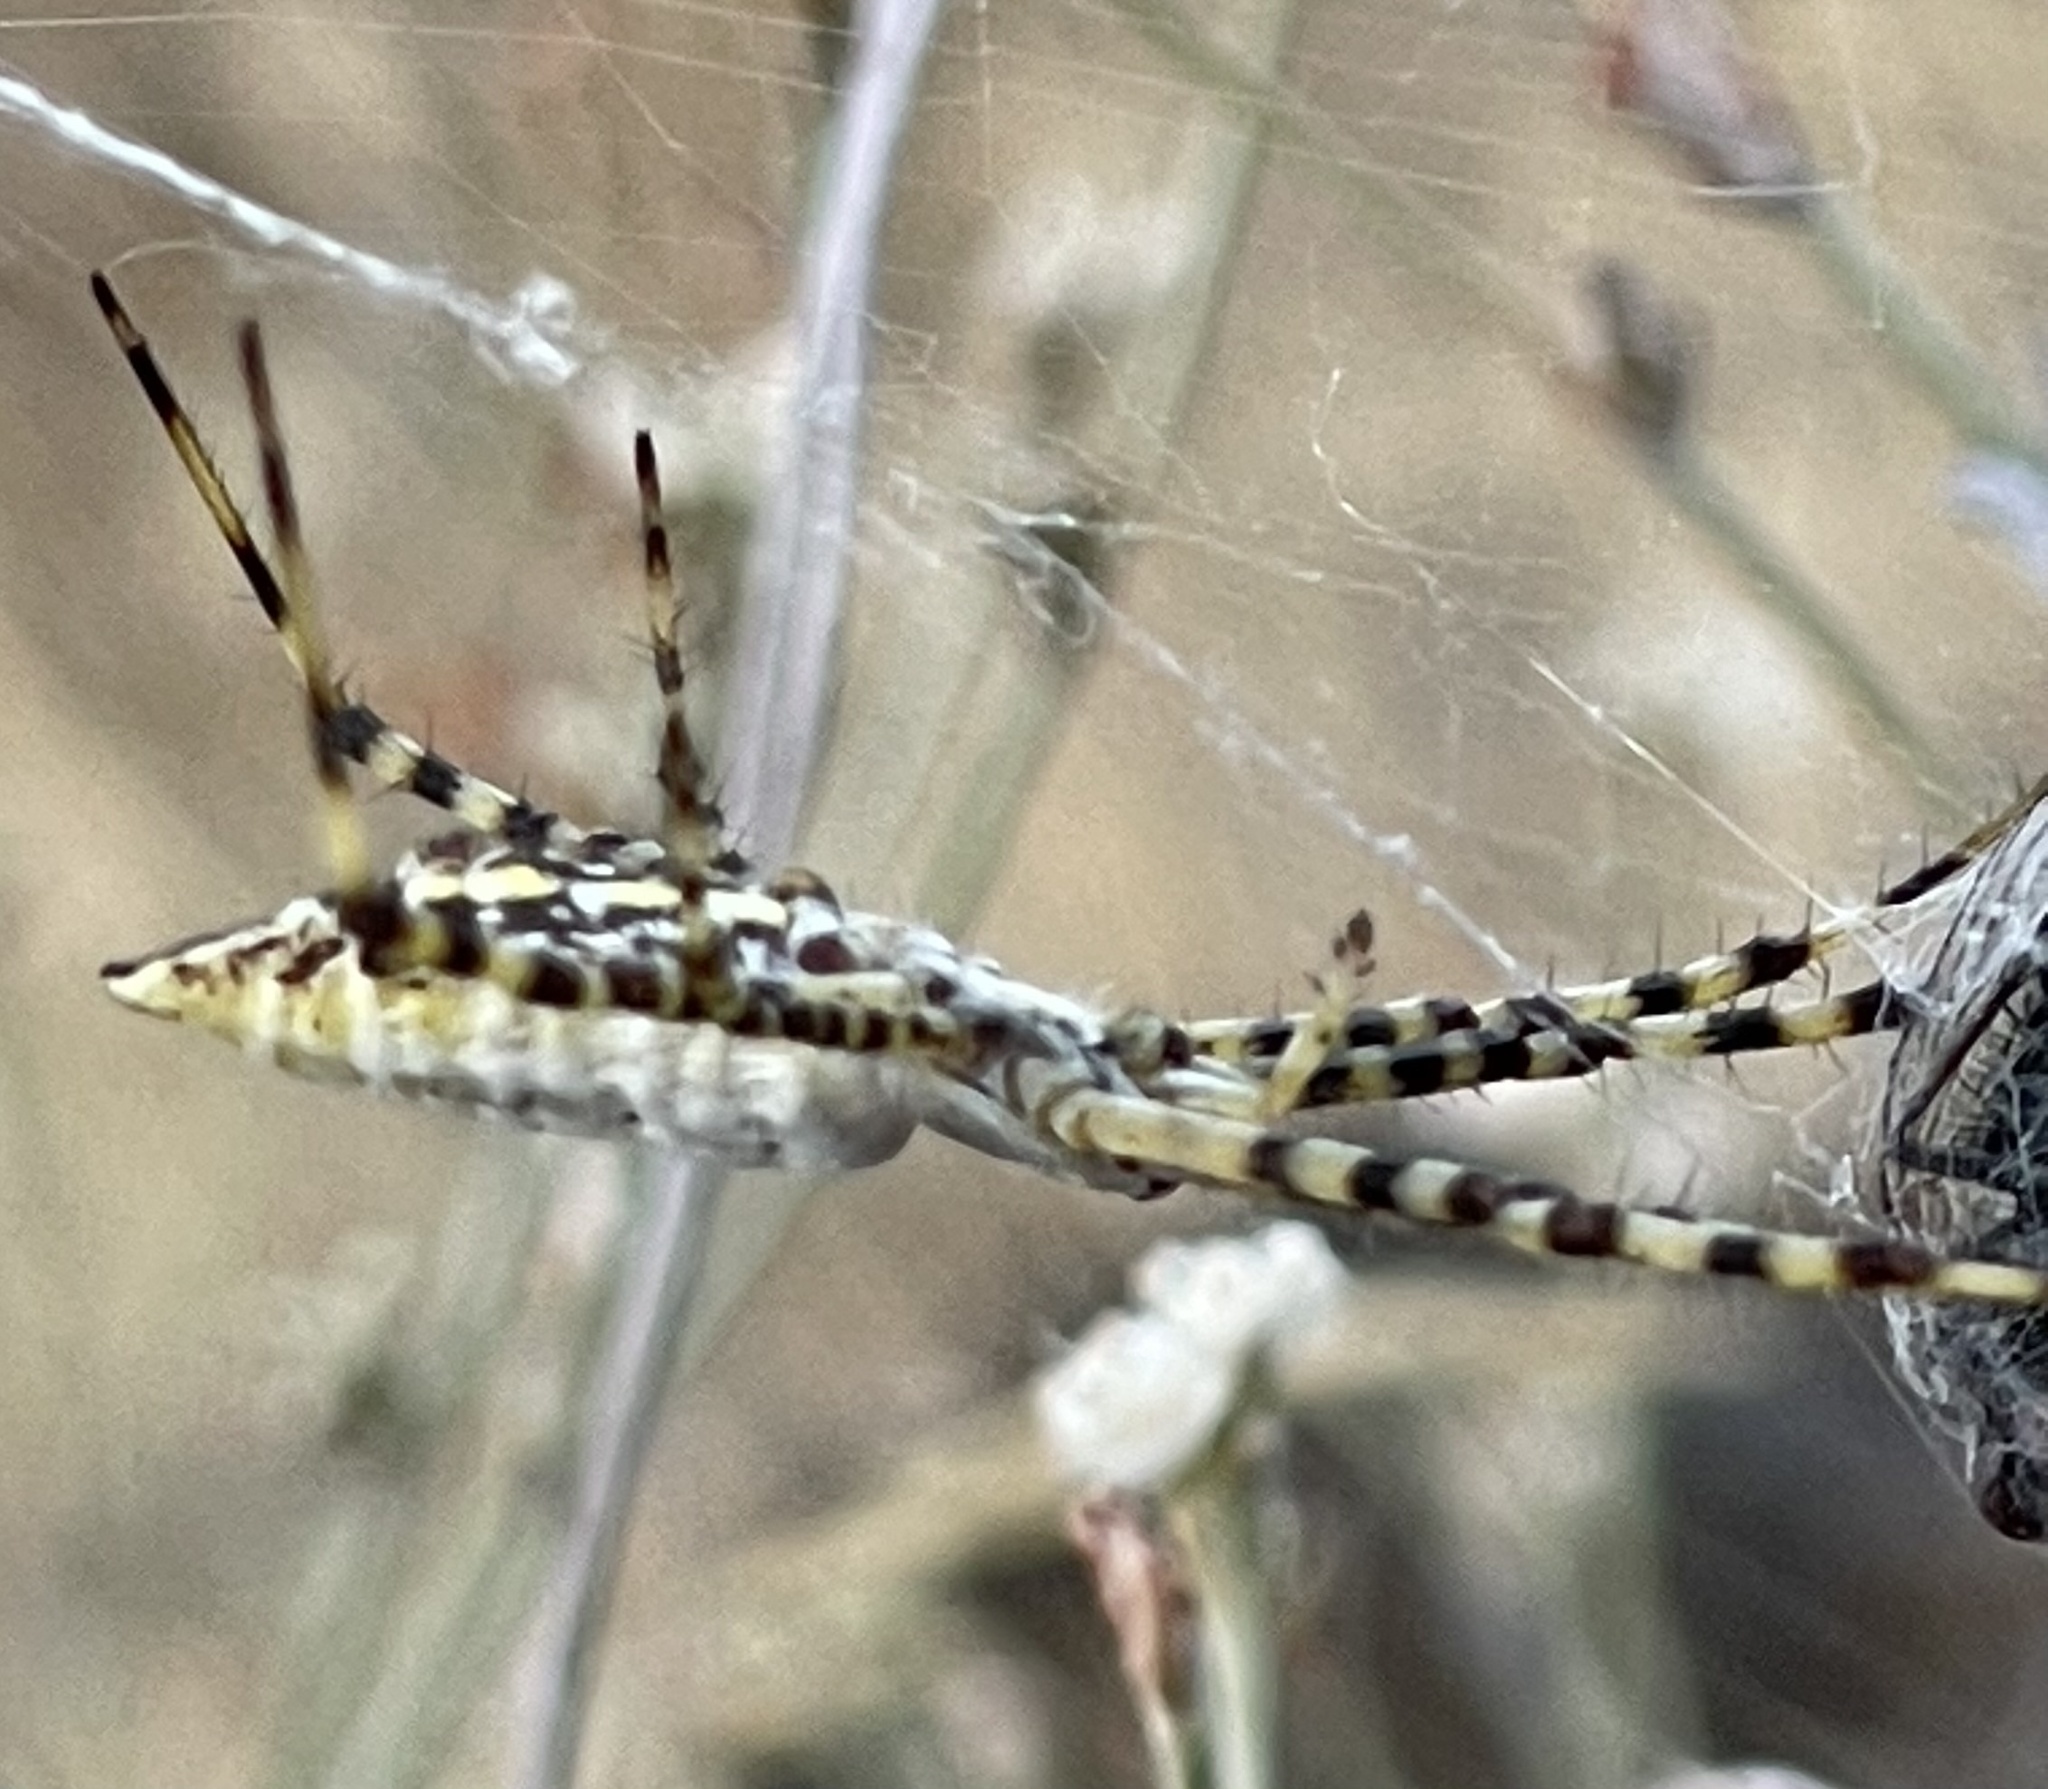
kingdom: Animalia
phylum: Arthropoda
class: Arachnida
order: Araneae
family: Araneidae
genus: Argiope
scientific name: Argiope trifasciata
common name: Banded garden spider
